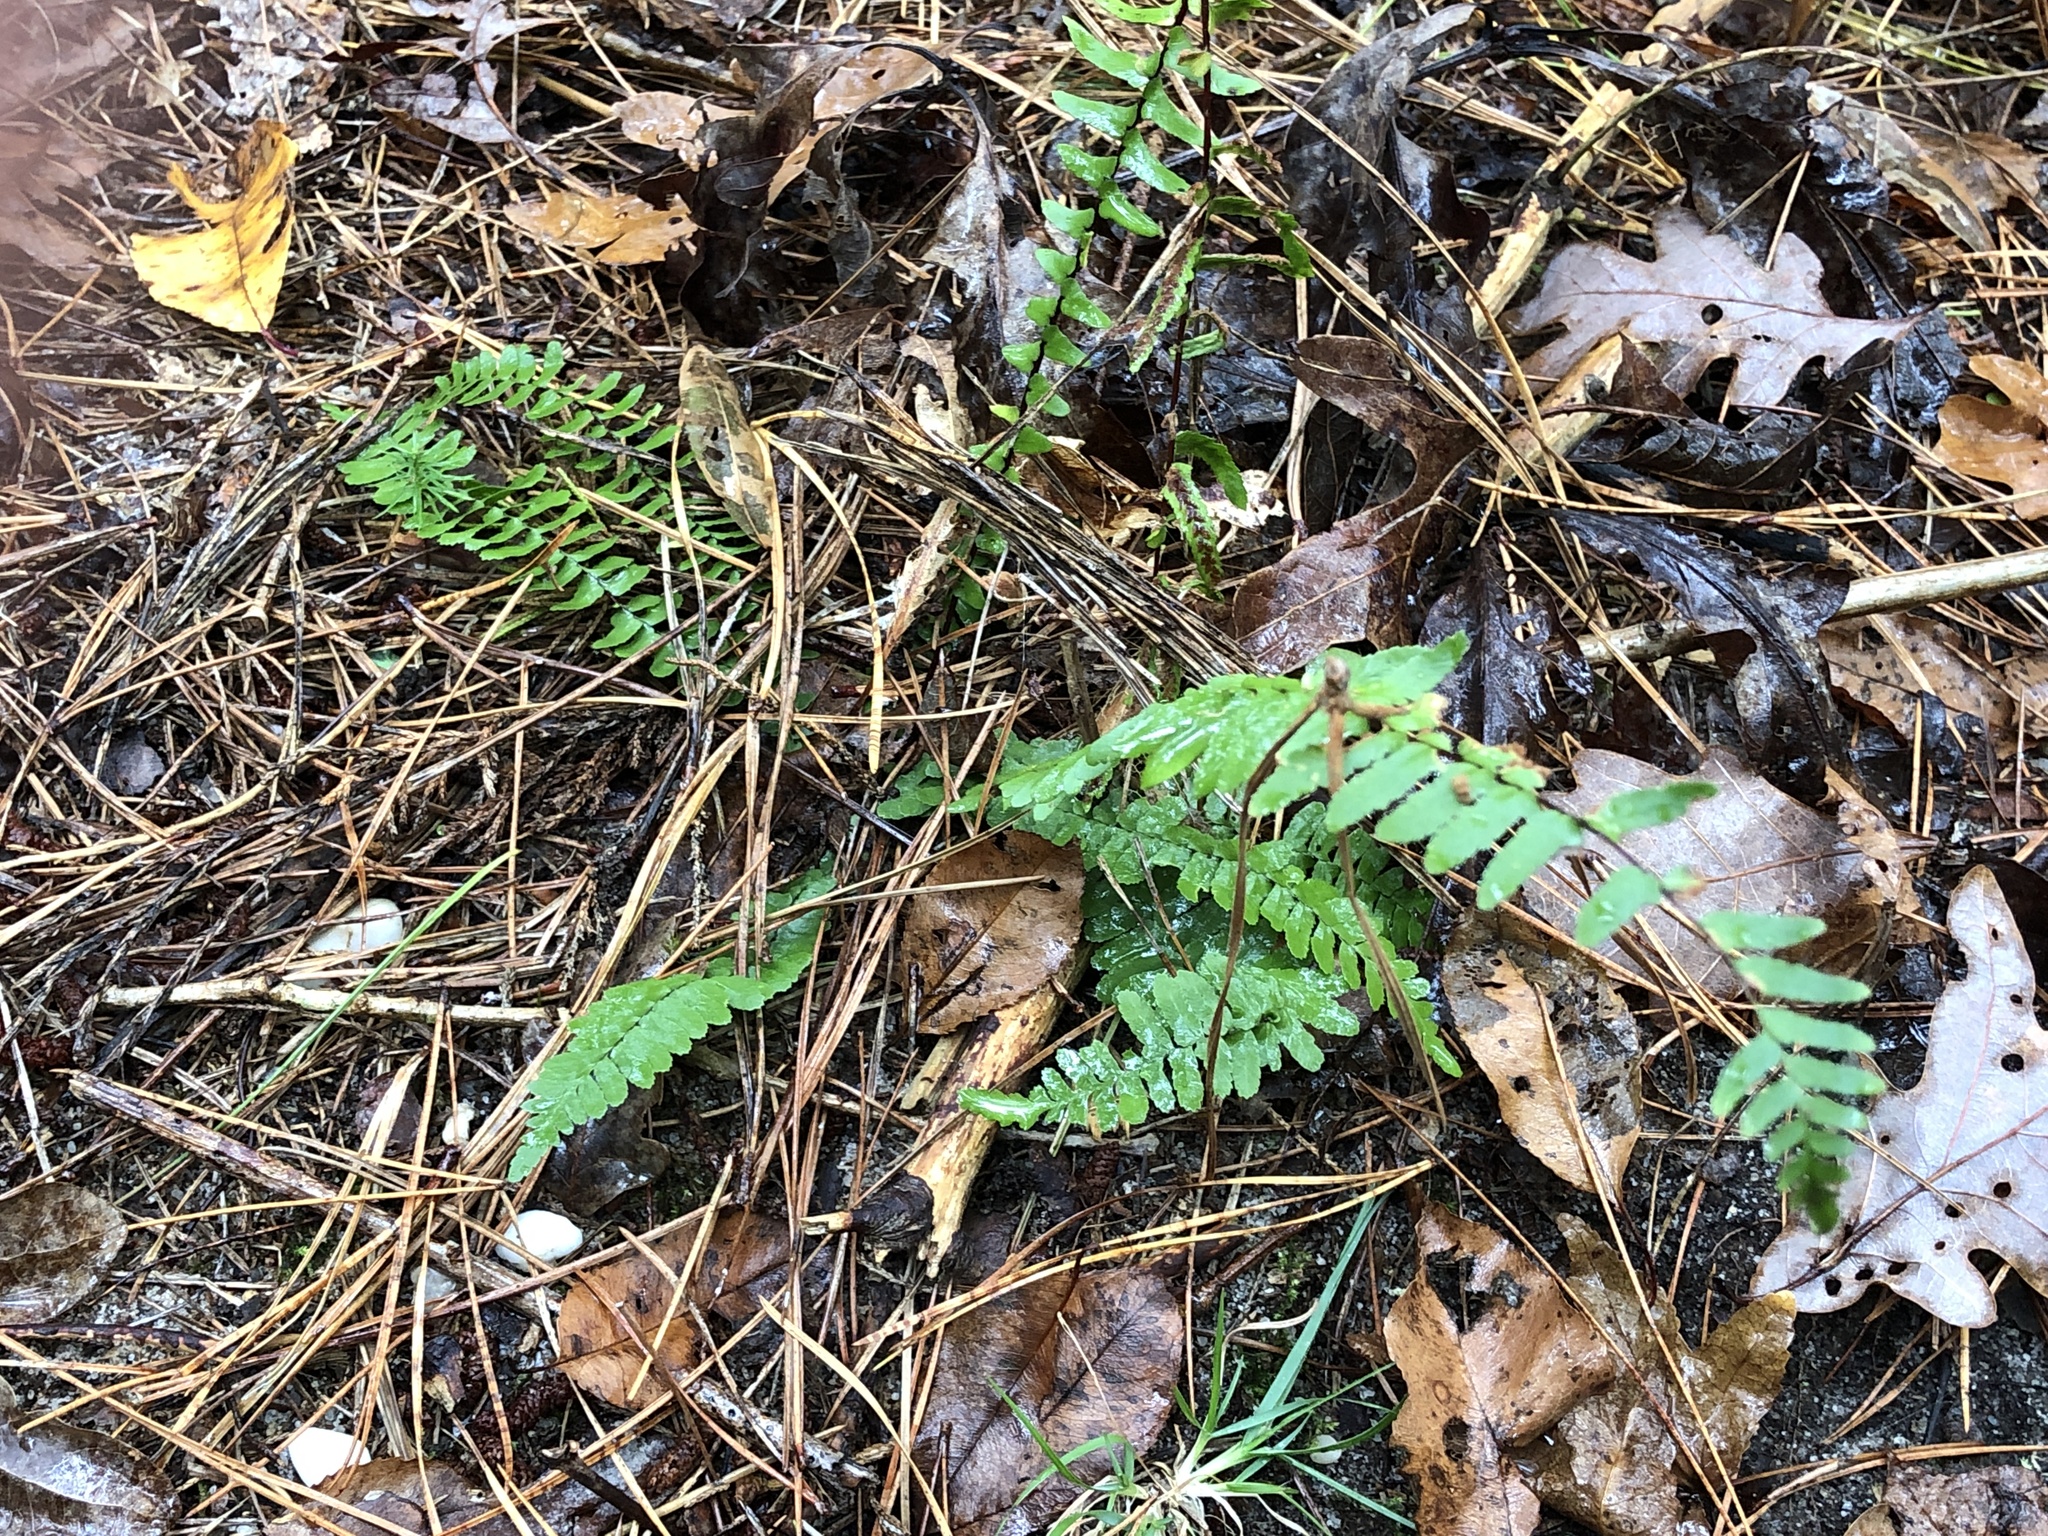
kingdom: Plantae
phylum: Tracheophyta
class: Polypodiopsida
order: Polypodiales
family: Aspleniaceae
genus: Asplenium
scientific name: Asplenium platyneuron
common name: Ebony spleenwort
